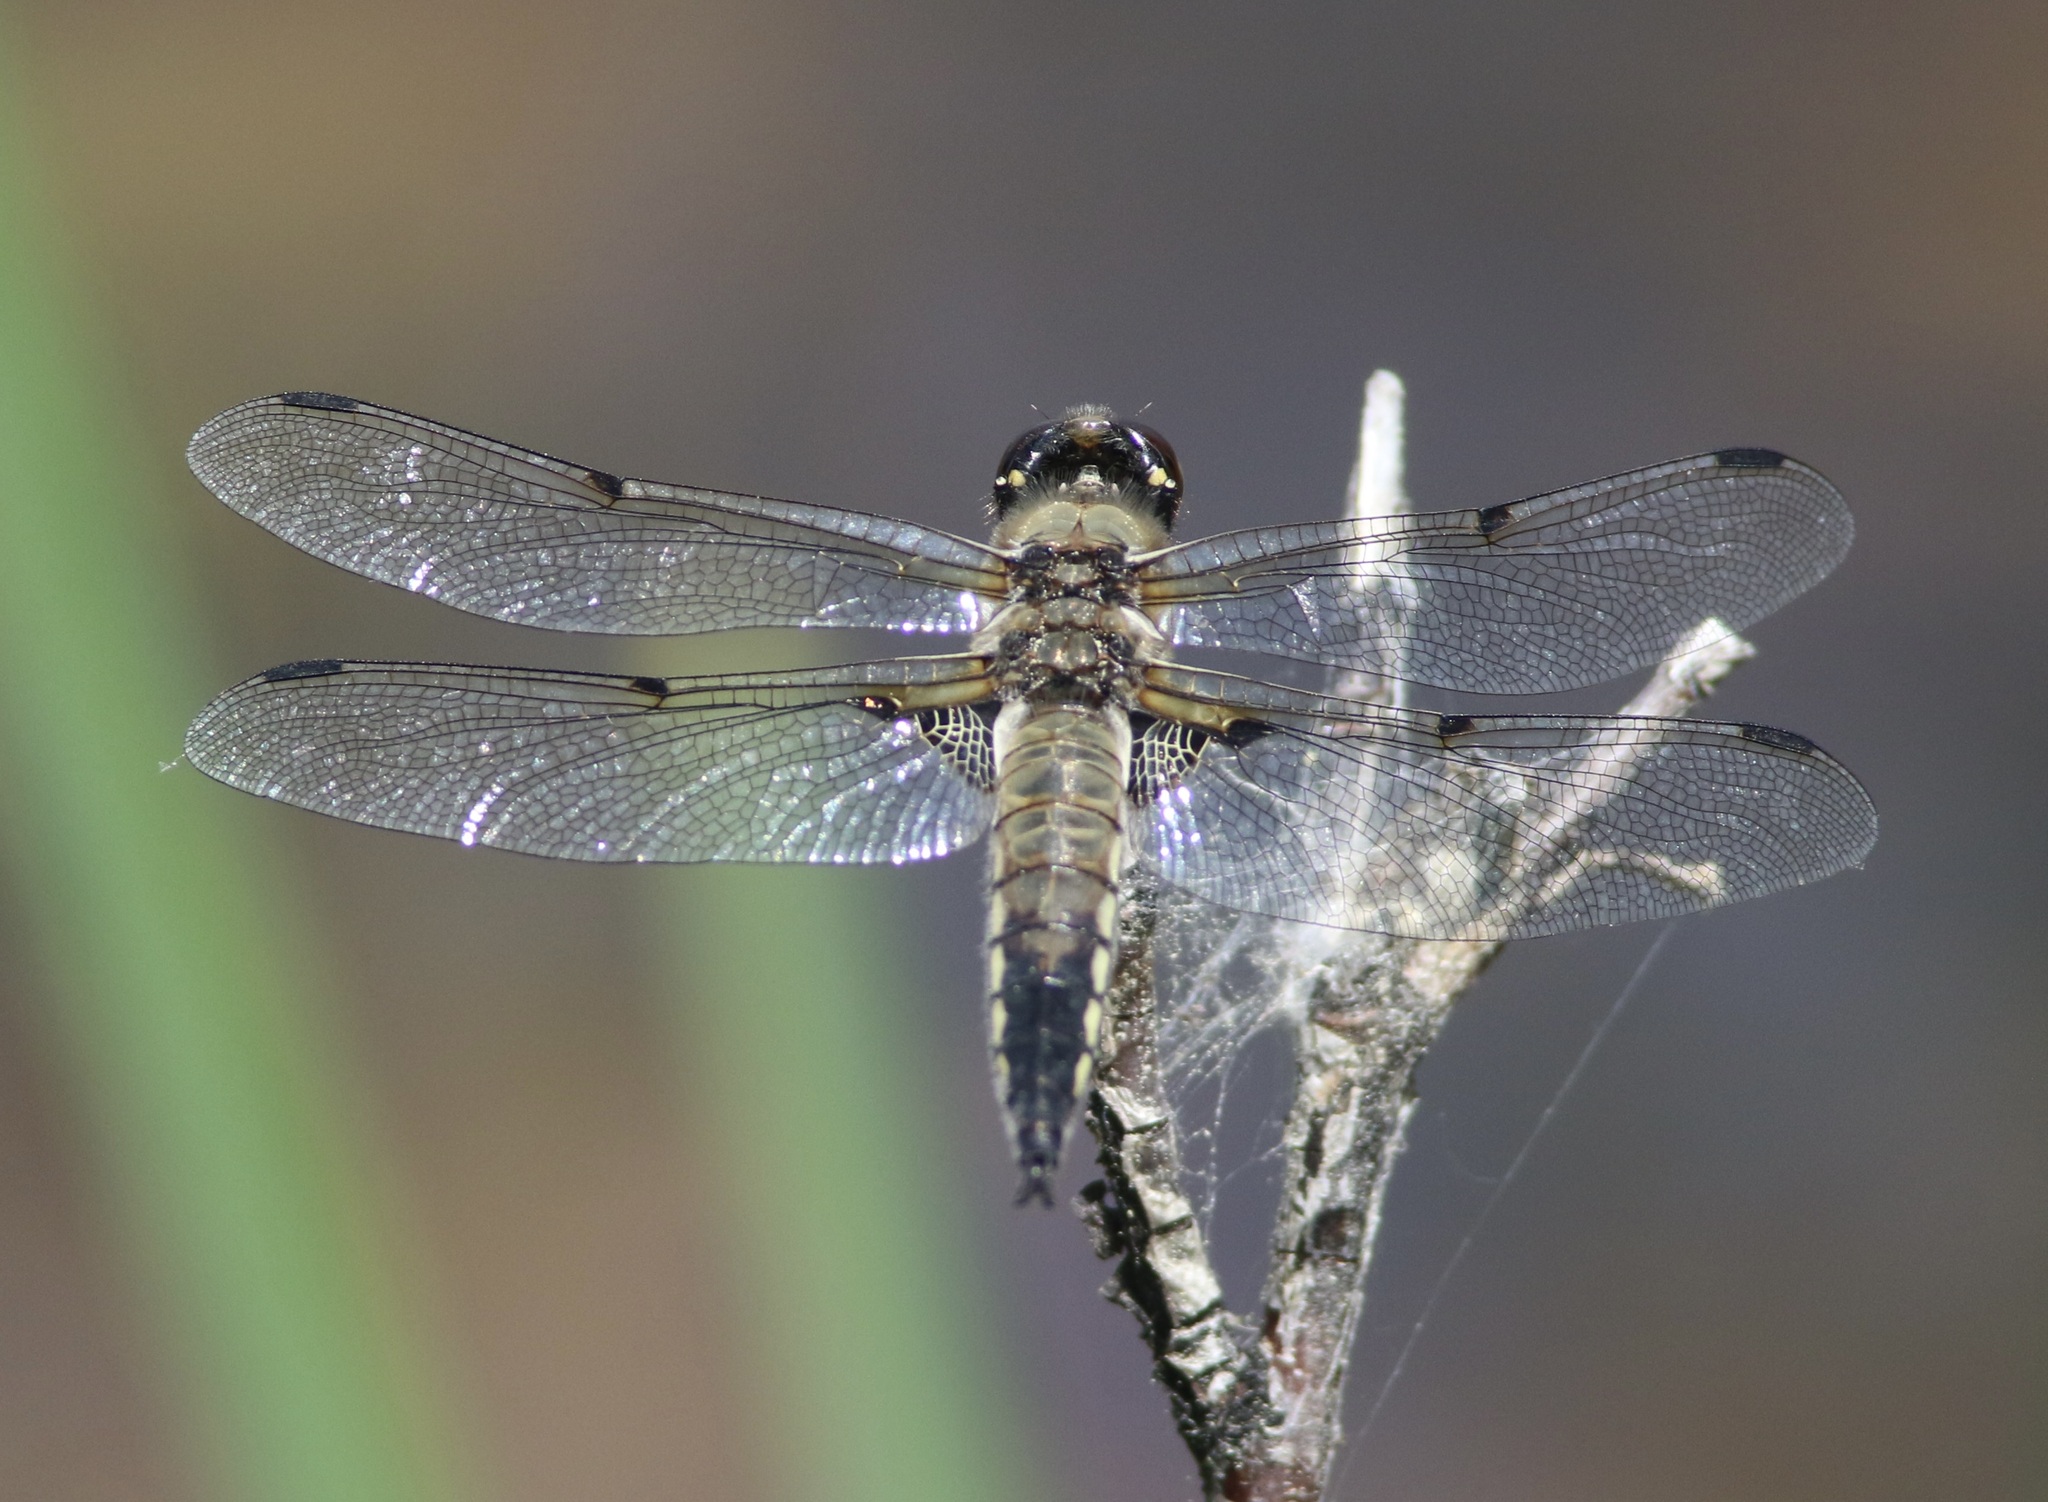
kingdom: Animalia
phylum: Arthropoda
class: Insecta
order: Odonata
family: Libellulidae
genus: Libellula
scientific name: Libellula quadrimaculata
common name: Four-spotted chaser
